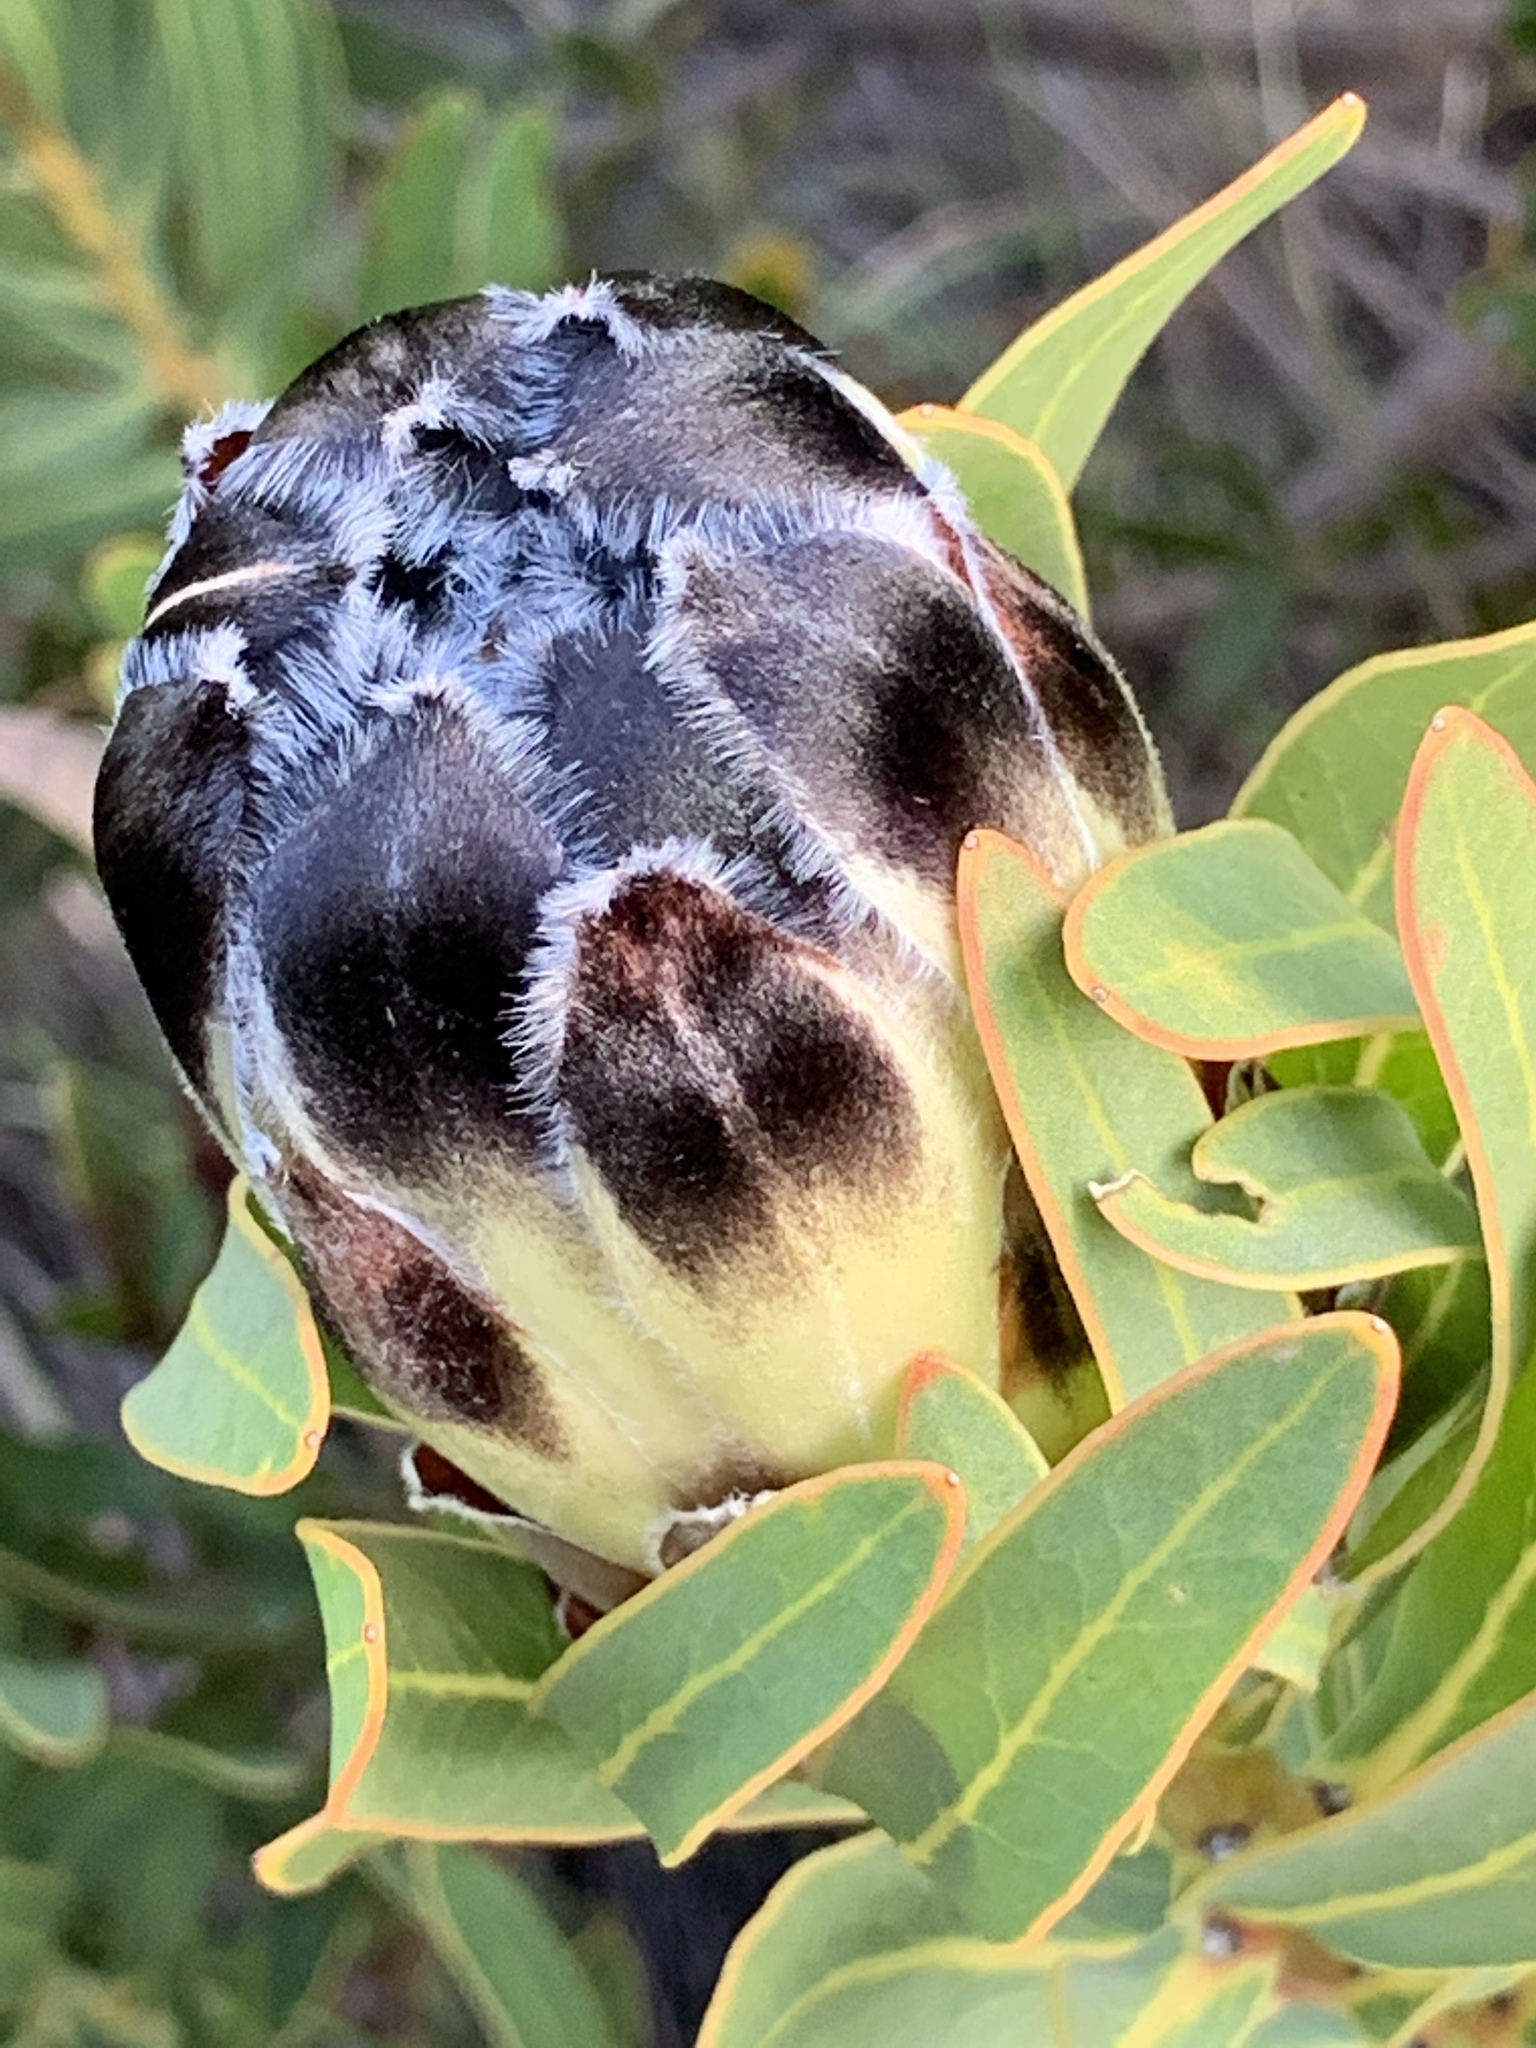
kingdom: Plantae
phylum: Tracheophyta
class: Magnoliopsida
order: Proteales
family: Proteaceae
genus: Protea
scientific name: Protea lepidocarpodendron
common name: Black-bearded protea
